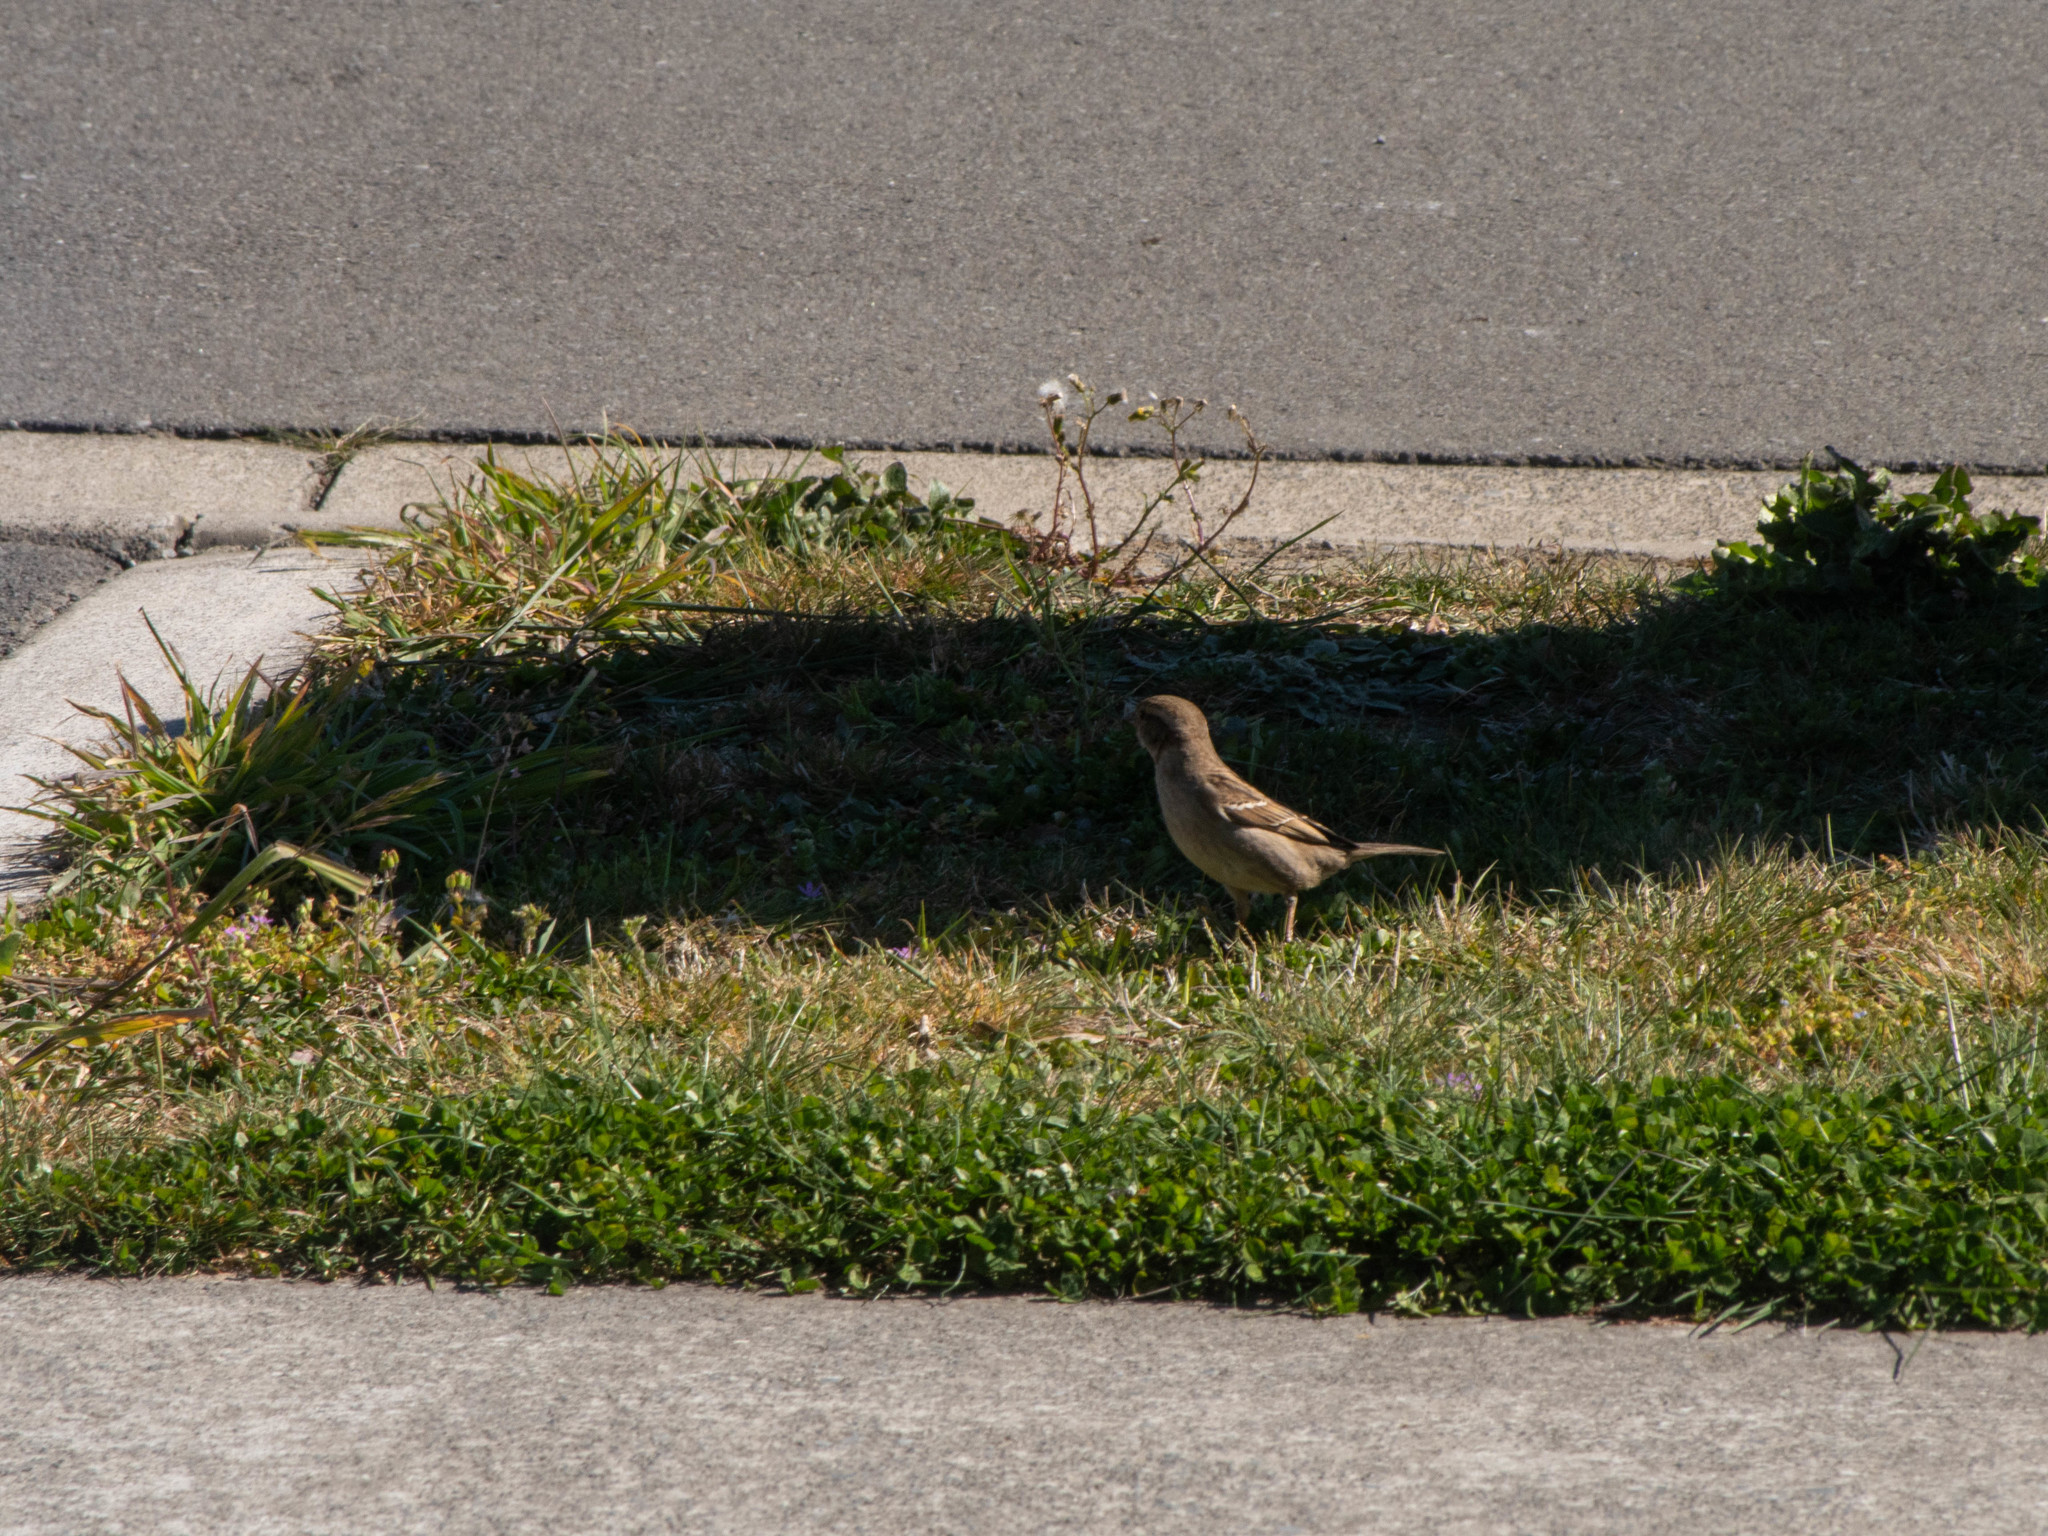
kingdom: Animalia
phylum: Chordata
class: Aves
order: Passeriformes
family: Passeridae
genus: Passer
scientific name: Passer domesticus
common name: House sparrow
